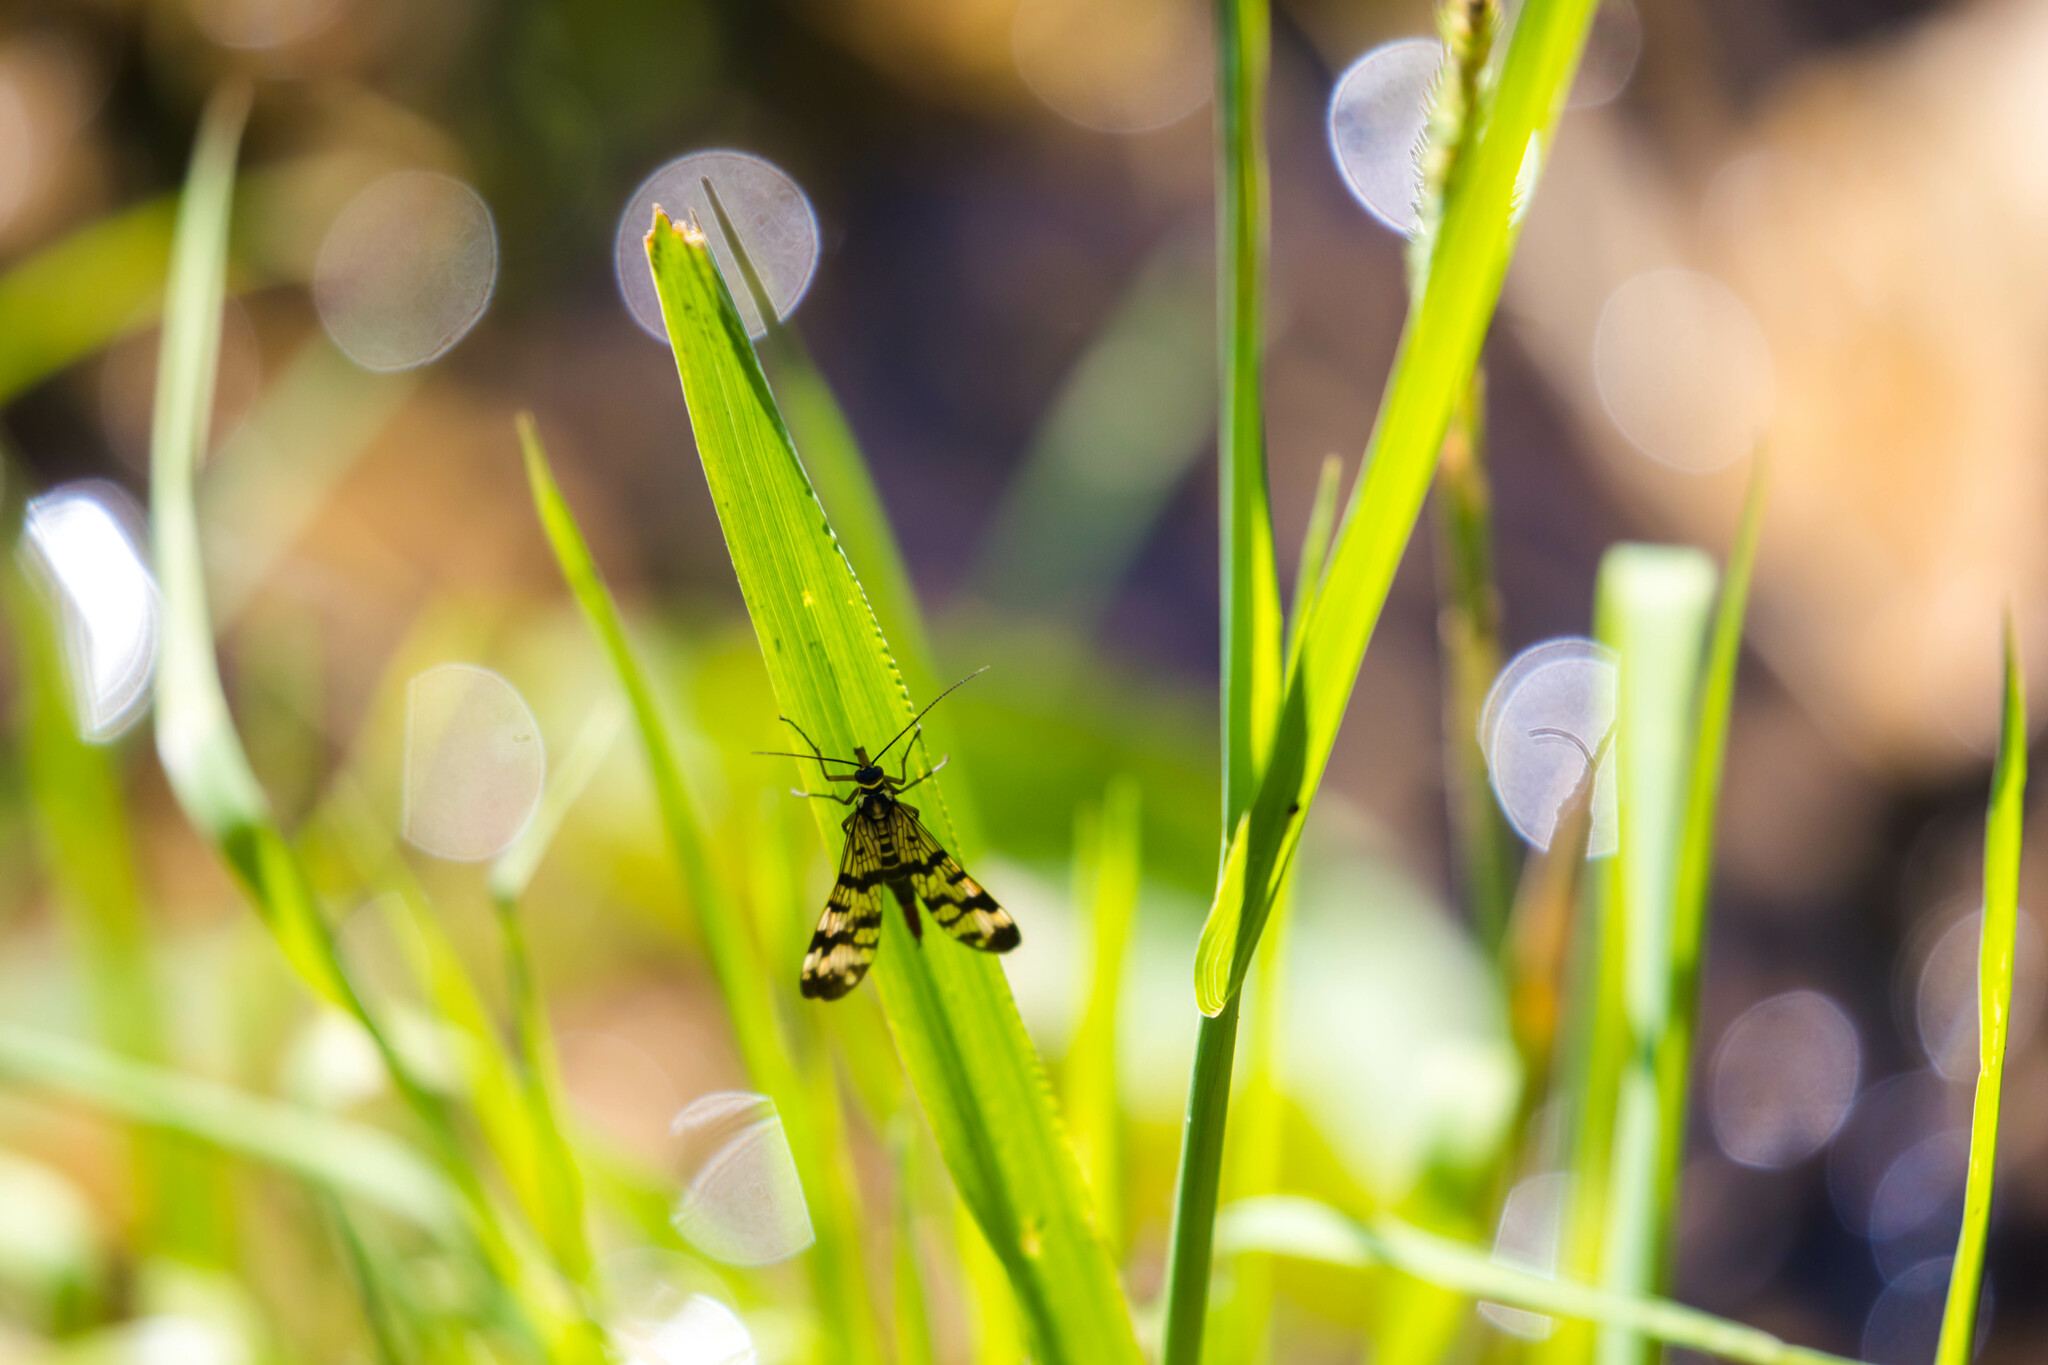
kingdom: Animalia
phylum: Arthropoda
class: Insecta
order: Mecoptera
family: Panorpidae
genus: Panorpa
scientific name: Panorpa communis
